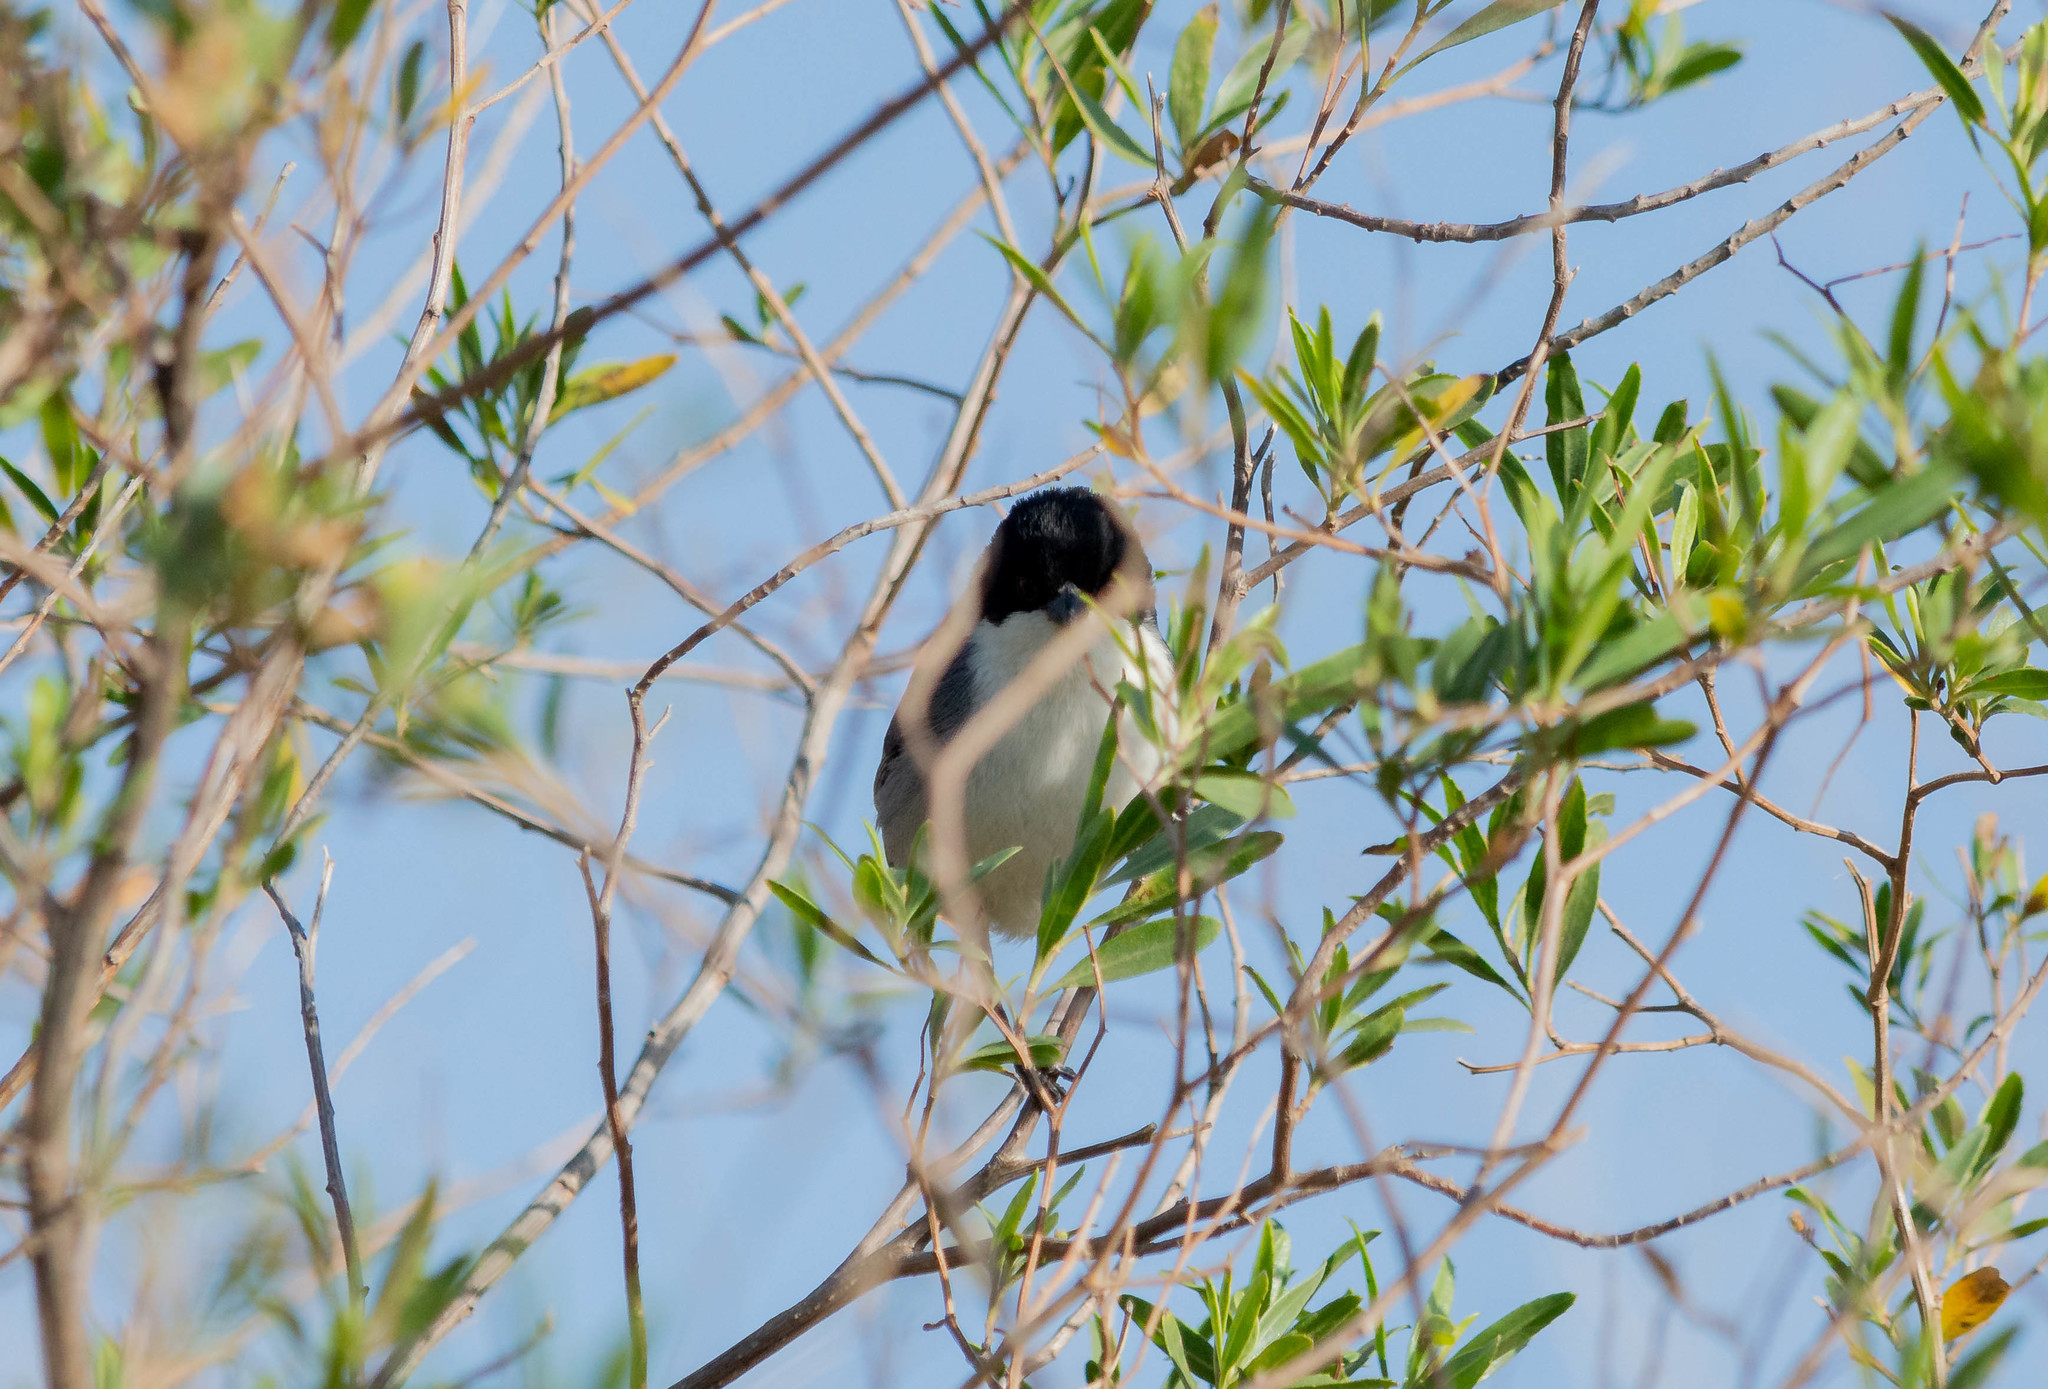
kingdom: Animalia
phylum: Chordata
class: Aves
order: Passeriformes
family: Thraupidae
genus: Microspingus
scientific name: Microspingus melanoleucus
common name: Black-capped warbling-finch
